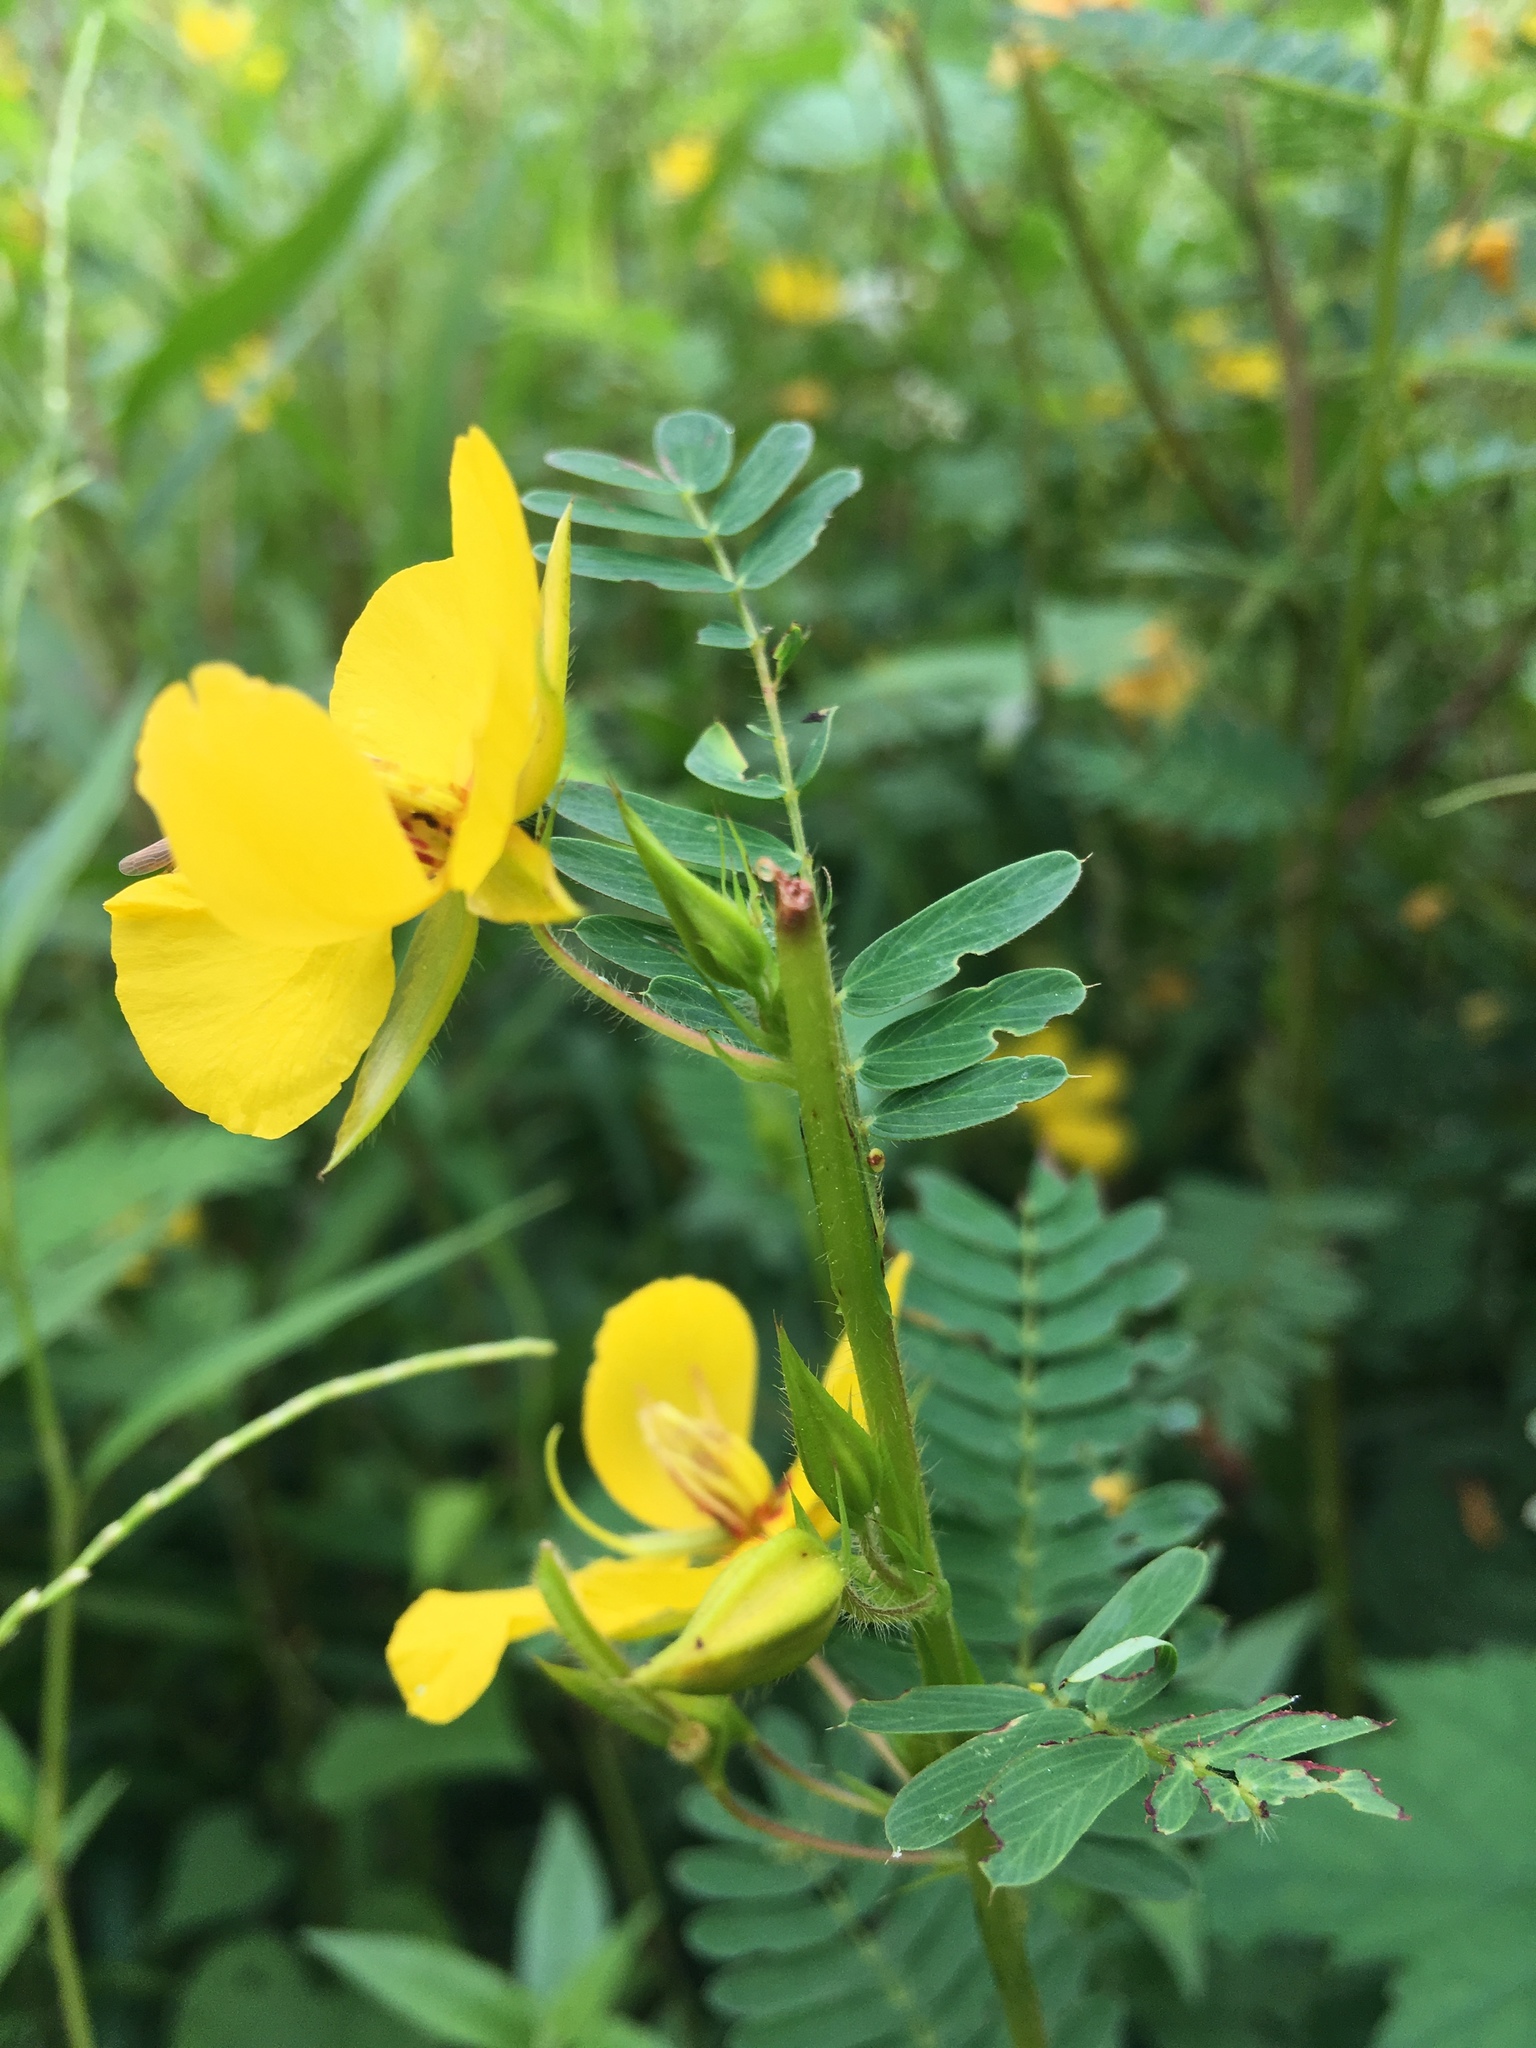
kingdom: Plantae
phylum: Tracheophyta
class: Magnoliopsida
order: Fabales
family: Fabaceae
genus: Chamaecrista
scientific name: Chamaecrista fasciculata
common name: Golden cassia
